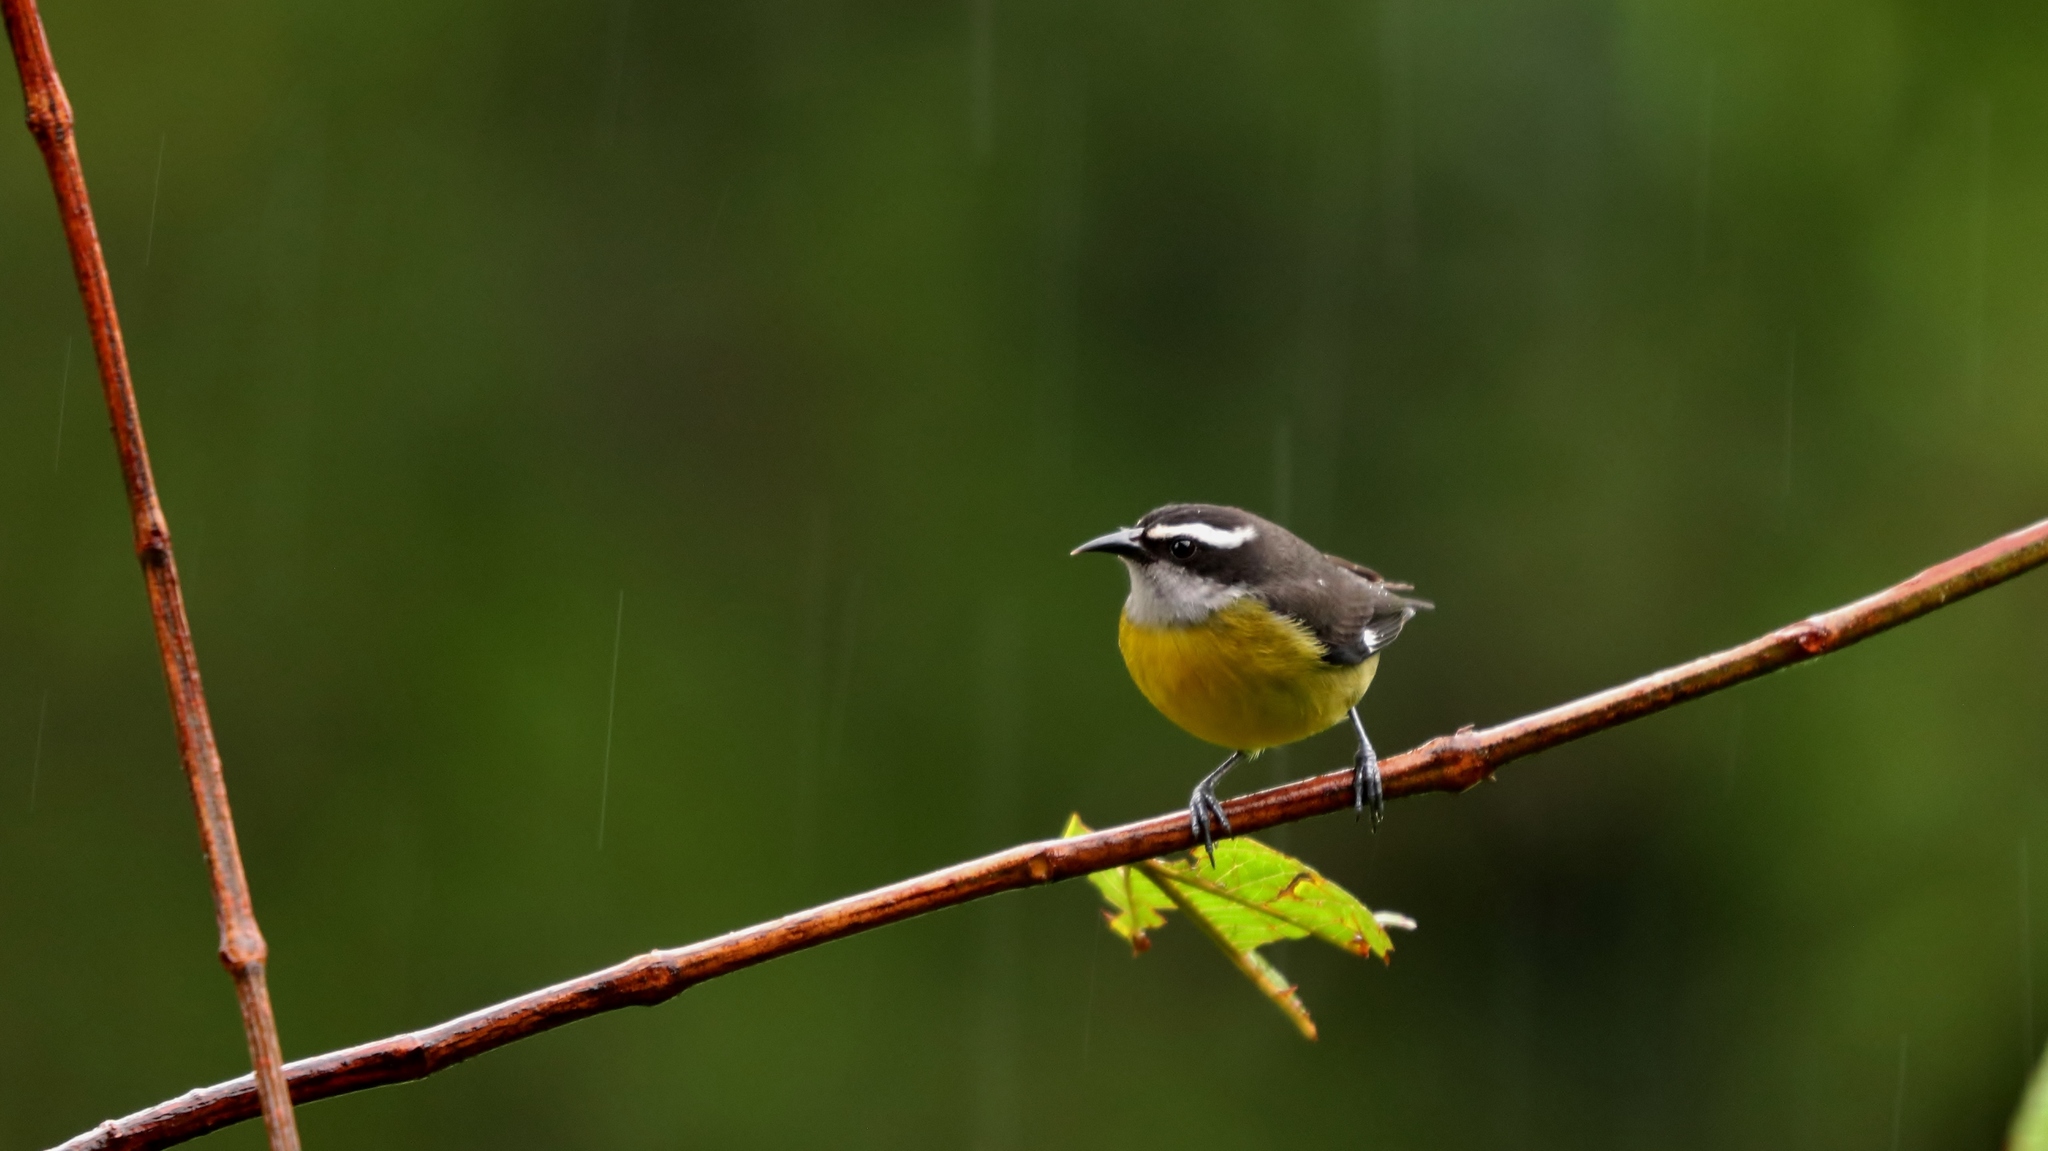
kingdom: Animalia
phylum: Chordata
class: Aves
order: Passeriformes
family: Thraupidae
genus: Coereba
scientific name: Coereba flaveola
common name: Bananaquit
